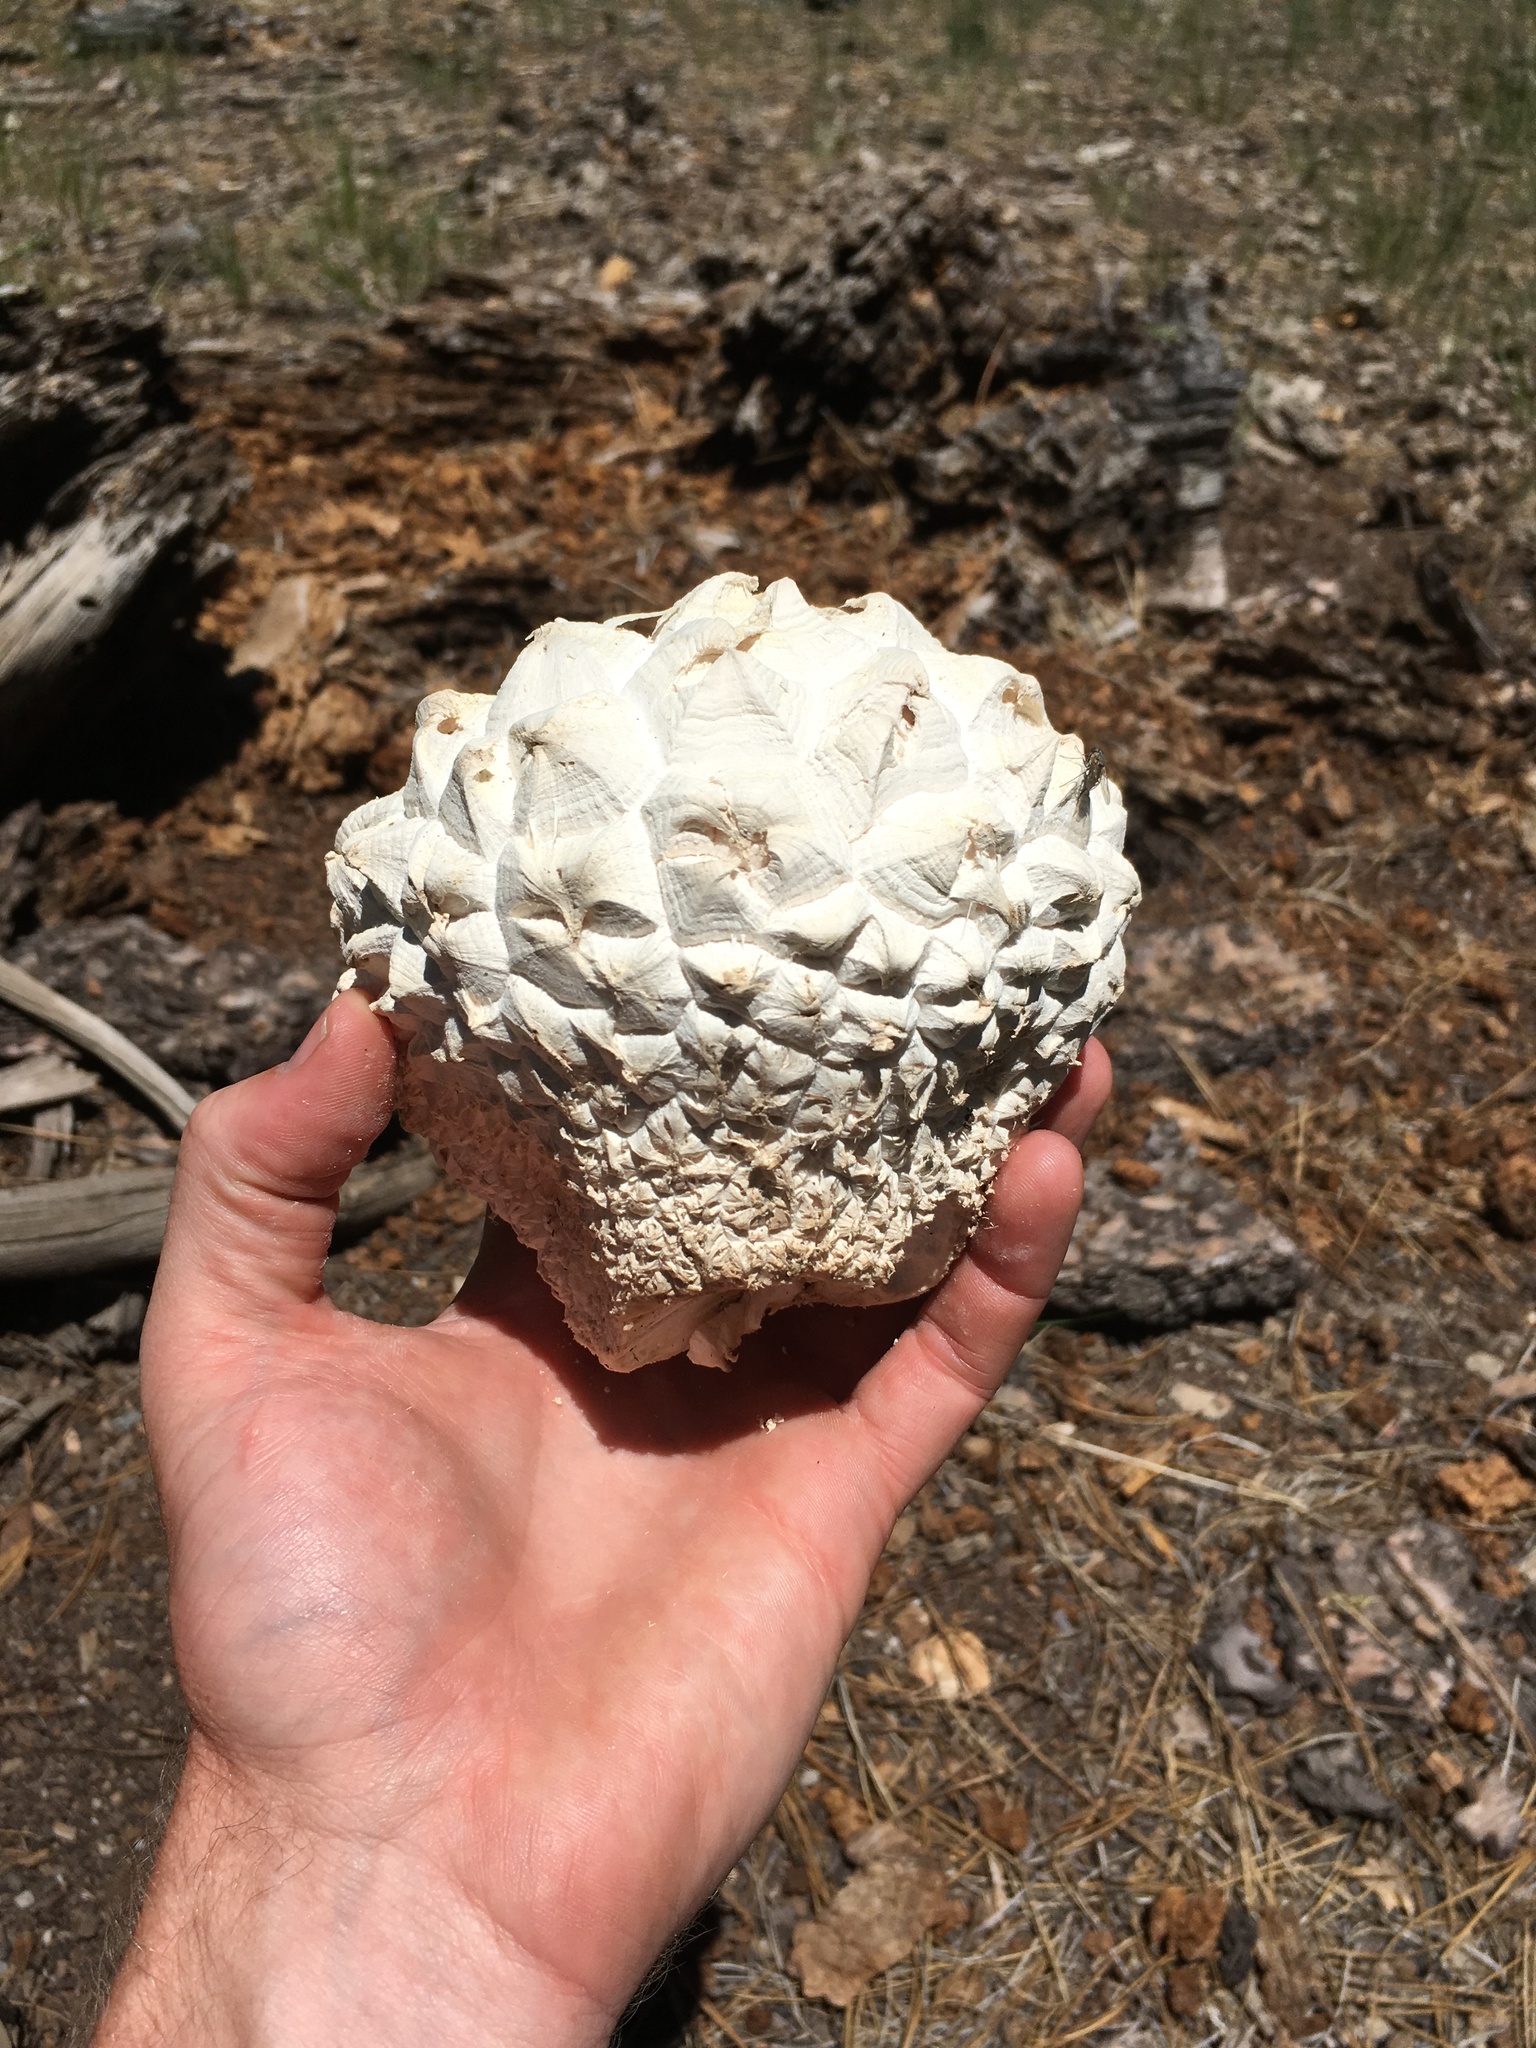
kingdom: Fungi
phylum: Basidiomycota
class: Agaricomycetes
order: Agaricales
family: Lycoperdaceae
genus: Calvatia
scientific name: Calvatia sculpta
